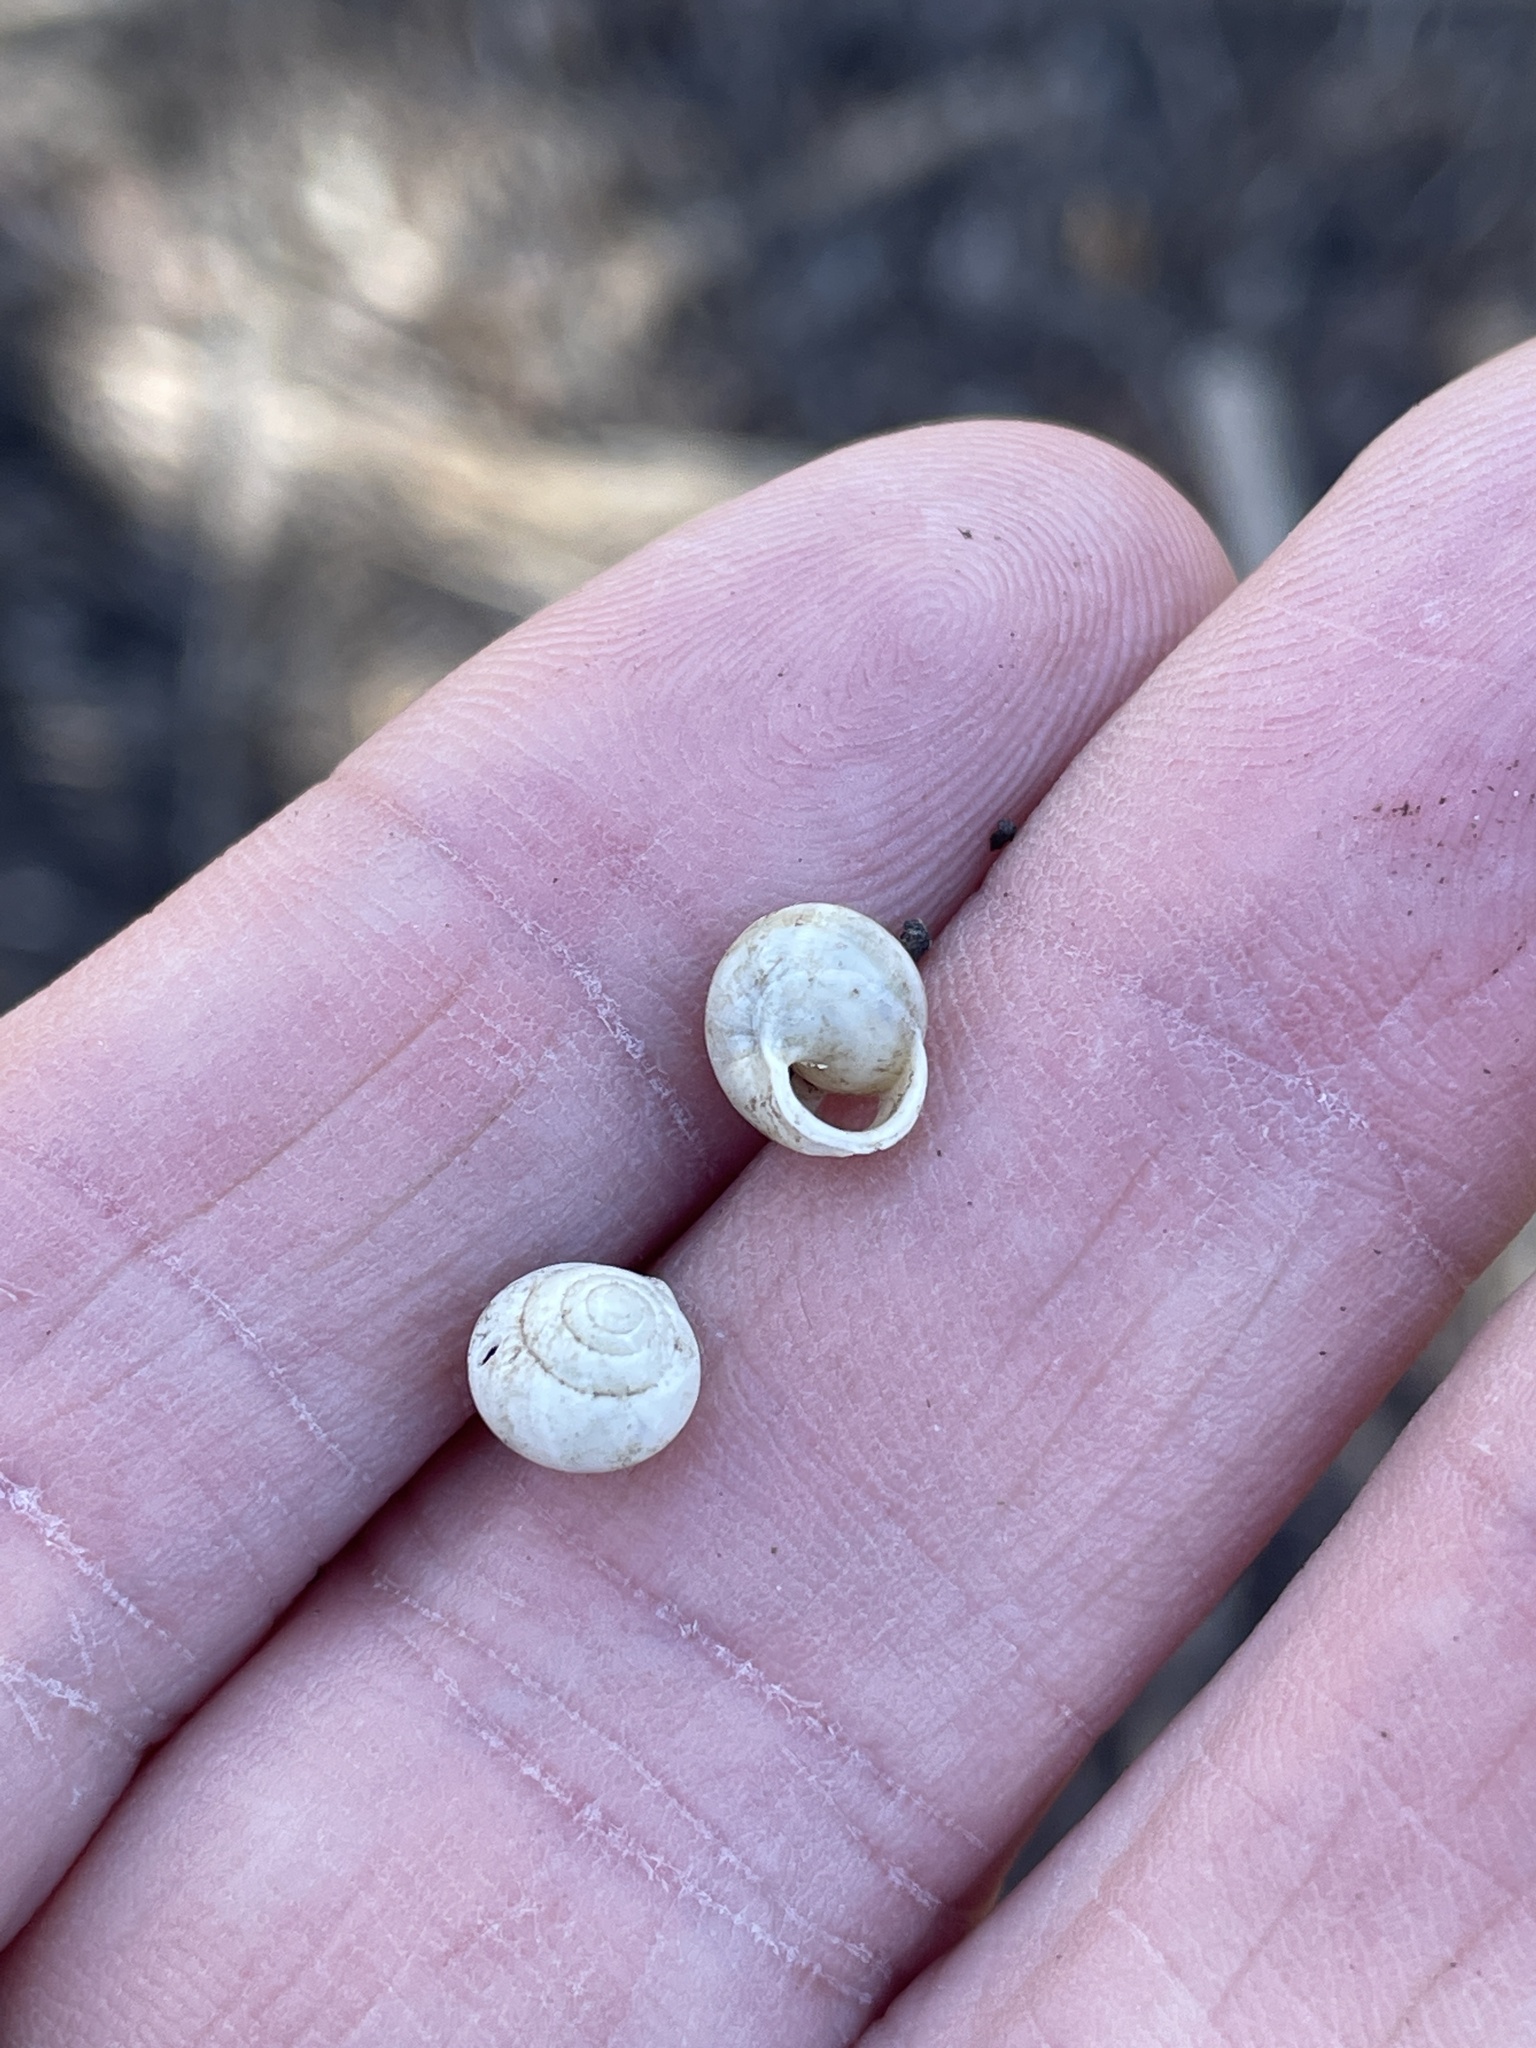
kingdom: Animalia
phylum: Mollusca
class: Gastropoda
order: Cycloneritida
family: Helicinidae
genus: Helicina
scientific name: Helicina orbiculata
